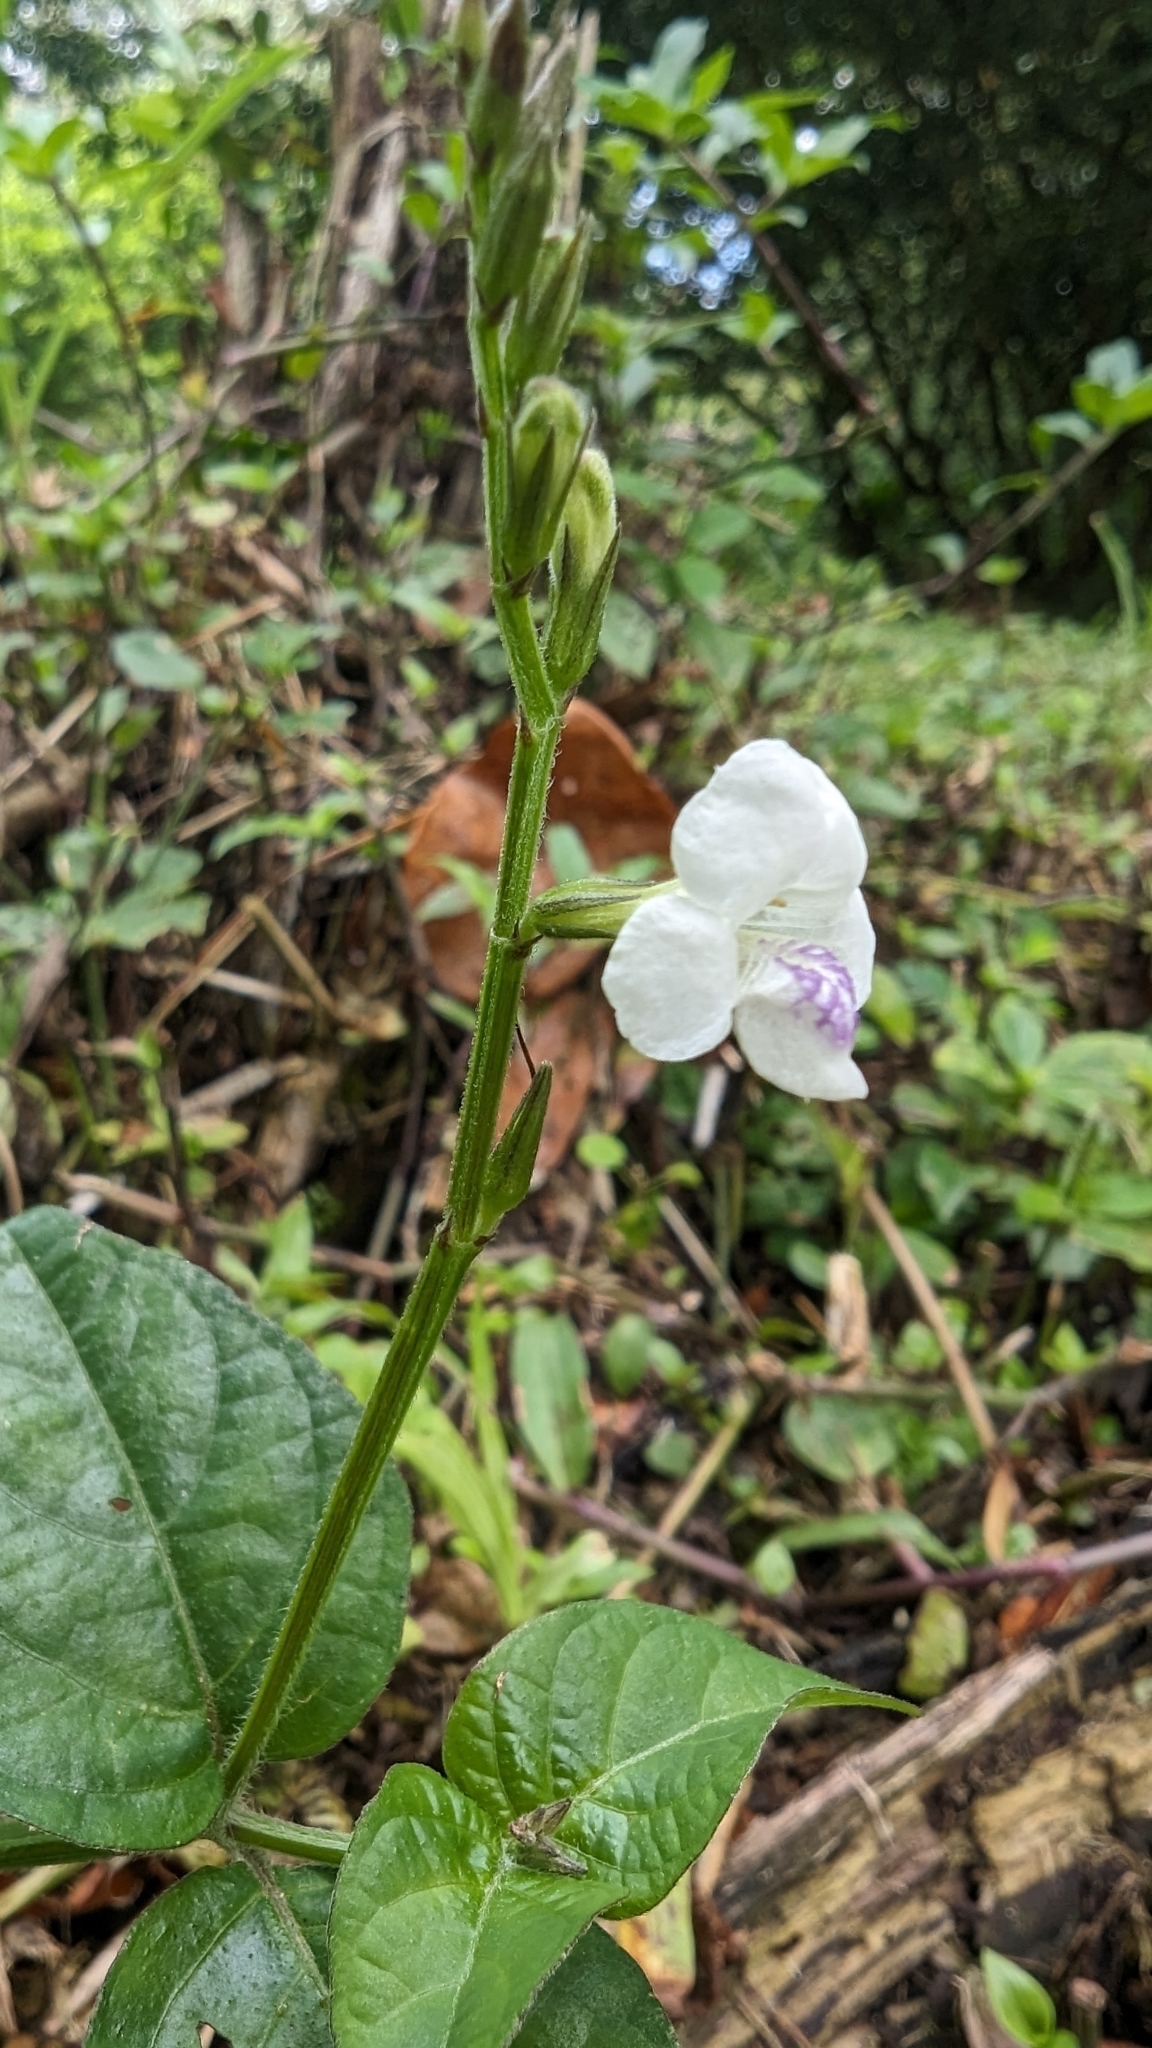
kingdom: Plantae
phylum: Tracheophyta
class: Magnoliopsida
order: Lamiales
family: Acanthaceae
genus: Asystasia
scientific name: Asystasia intrusa
